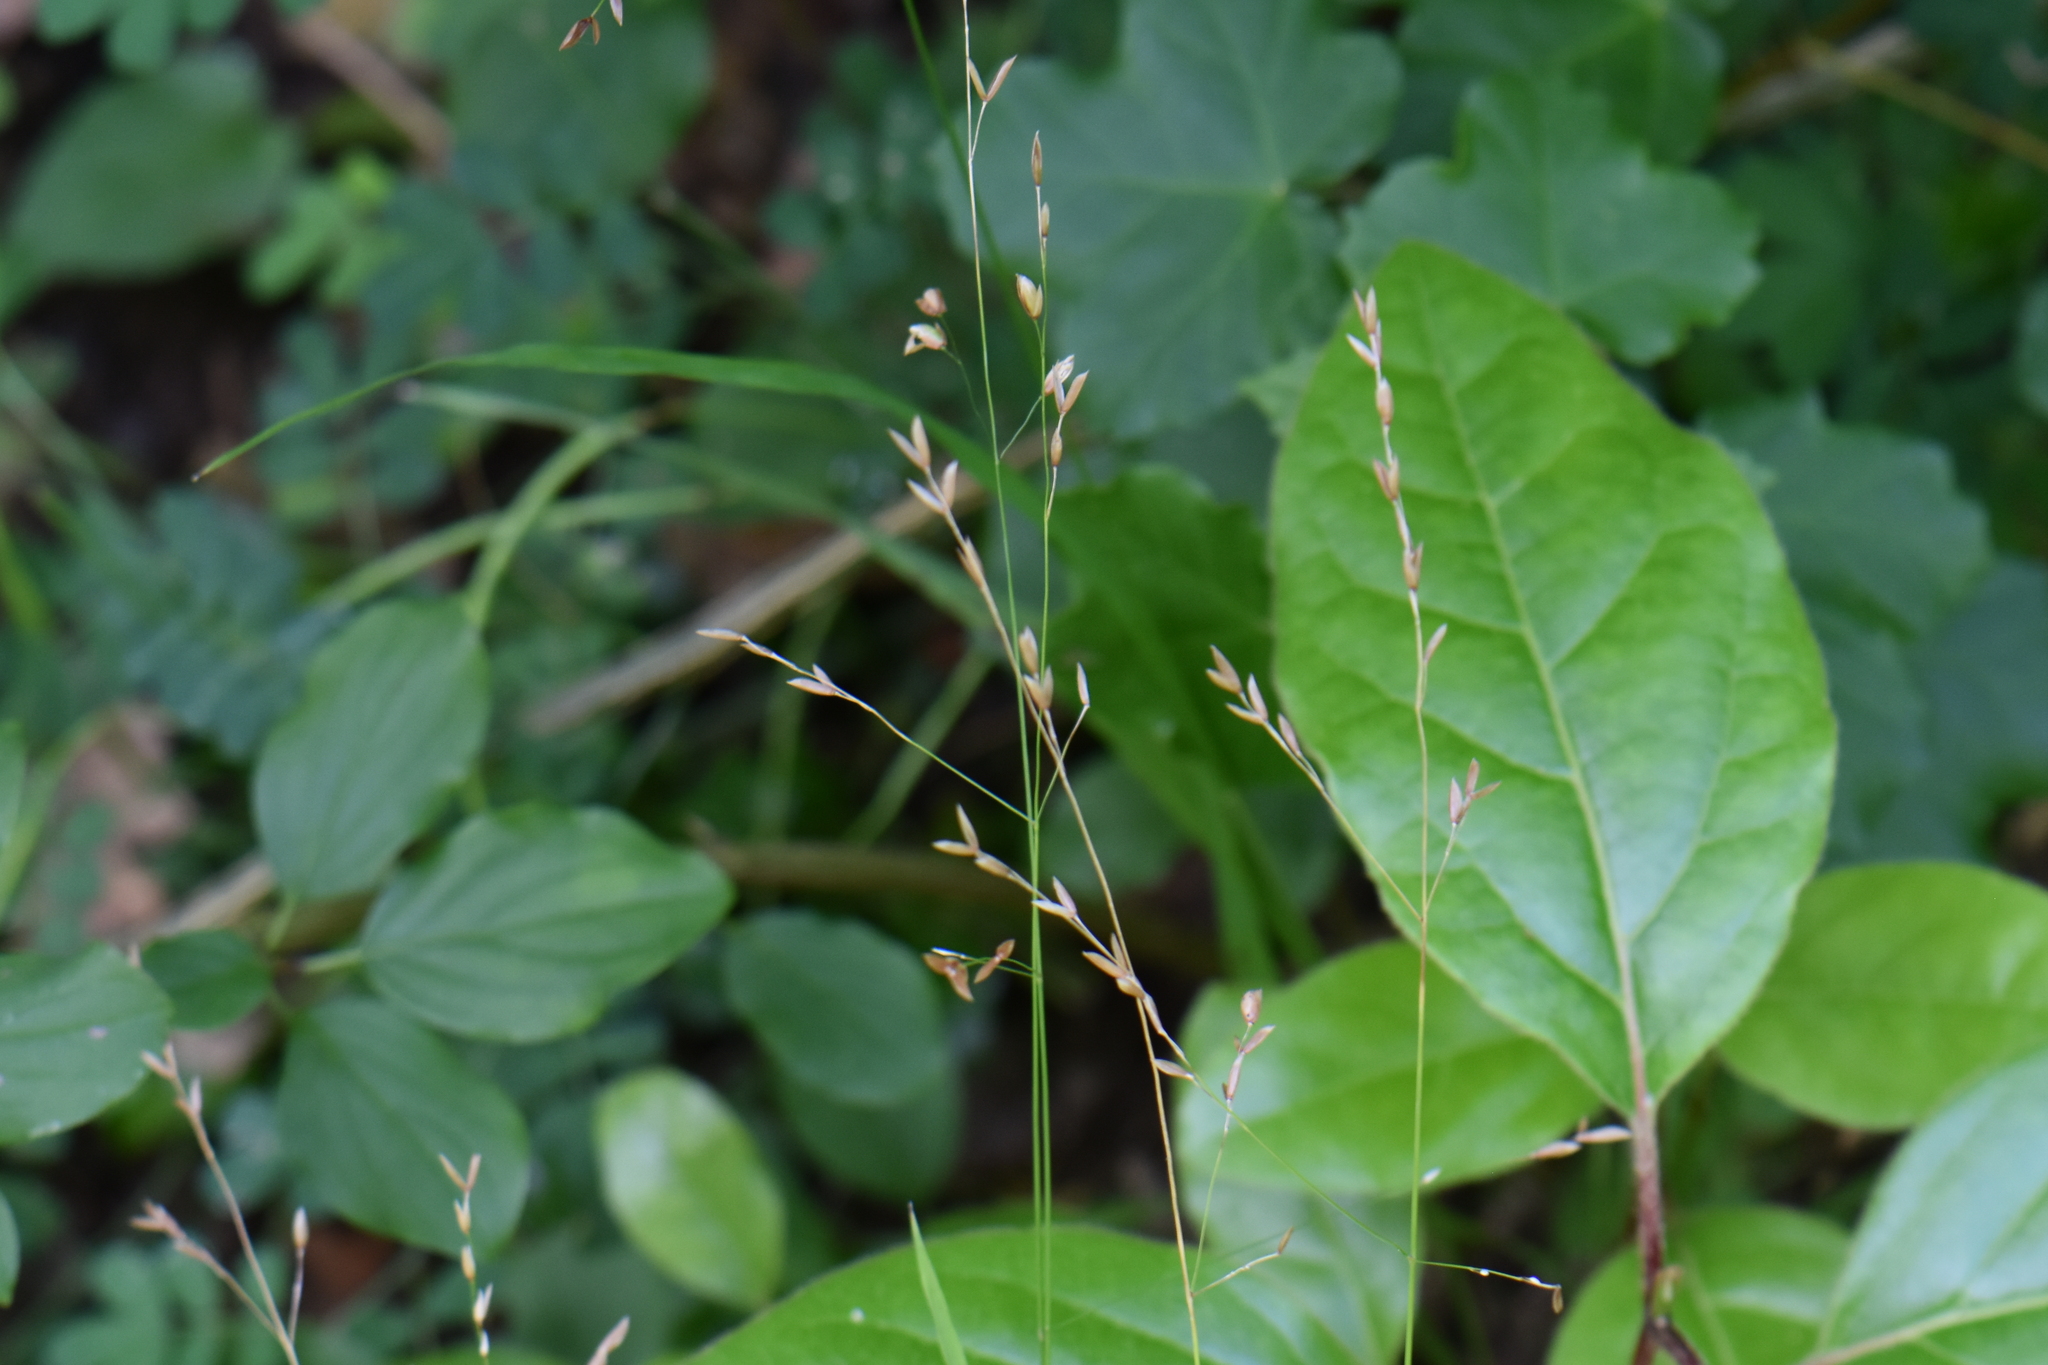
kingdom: Plantae
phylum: Tracheophyta
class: Liliopsida
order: Poales
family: Poaceae
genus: Melica
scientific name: Melica uniflora
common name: Wood melick
